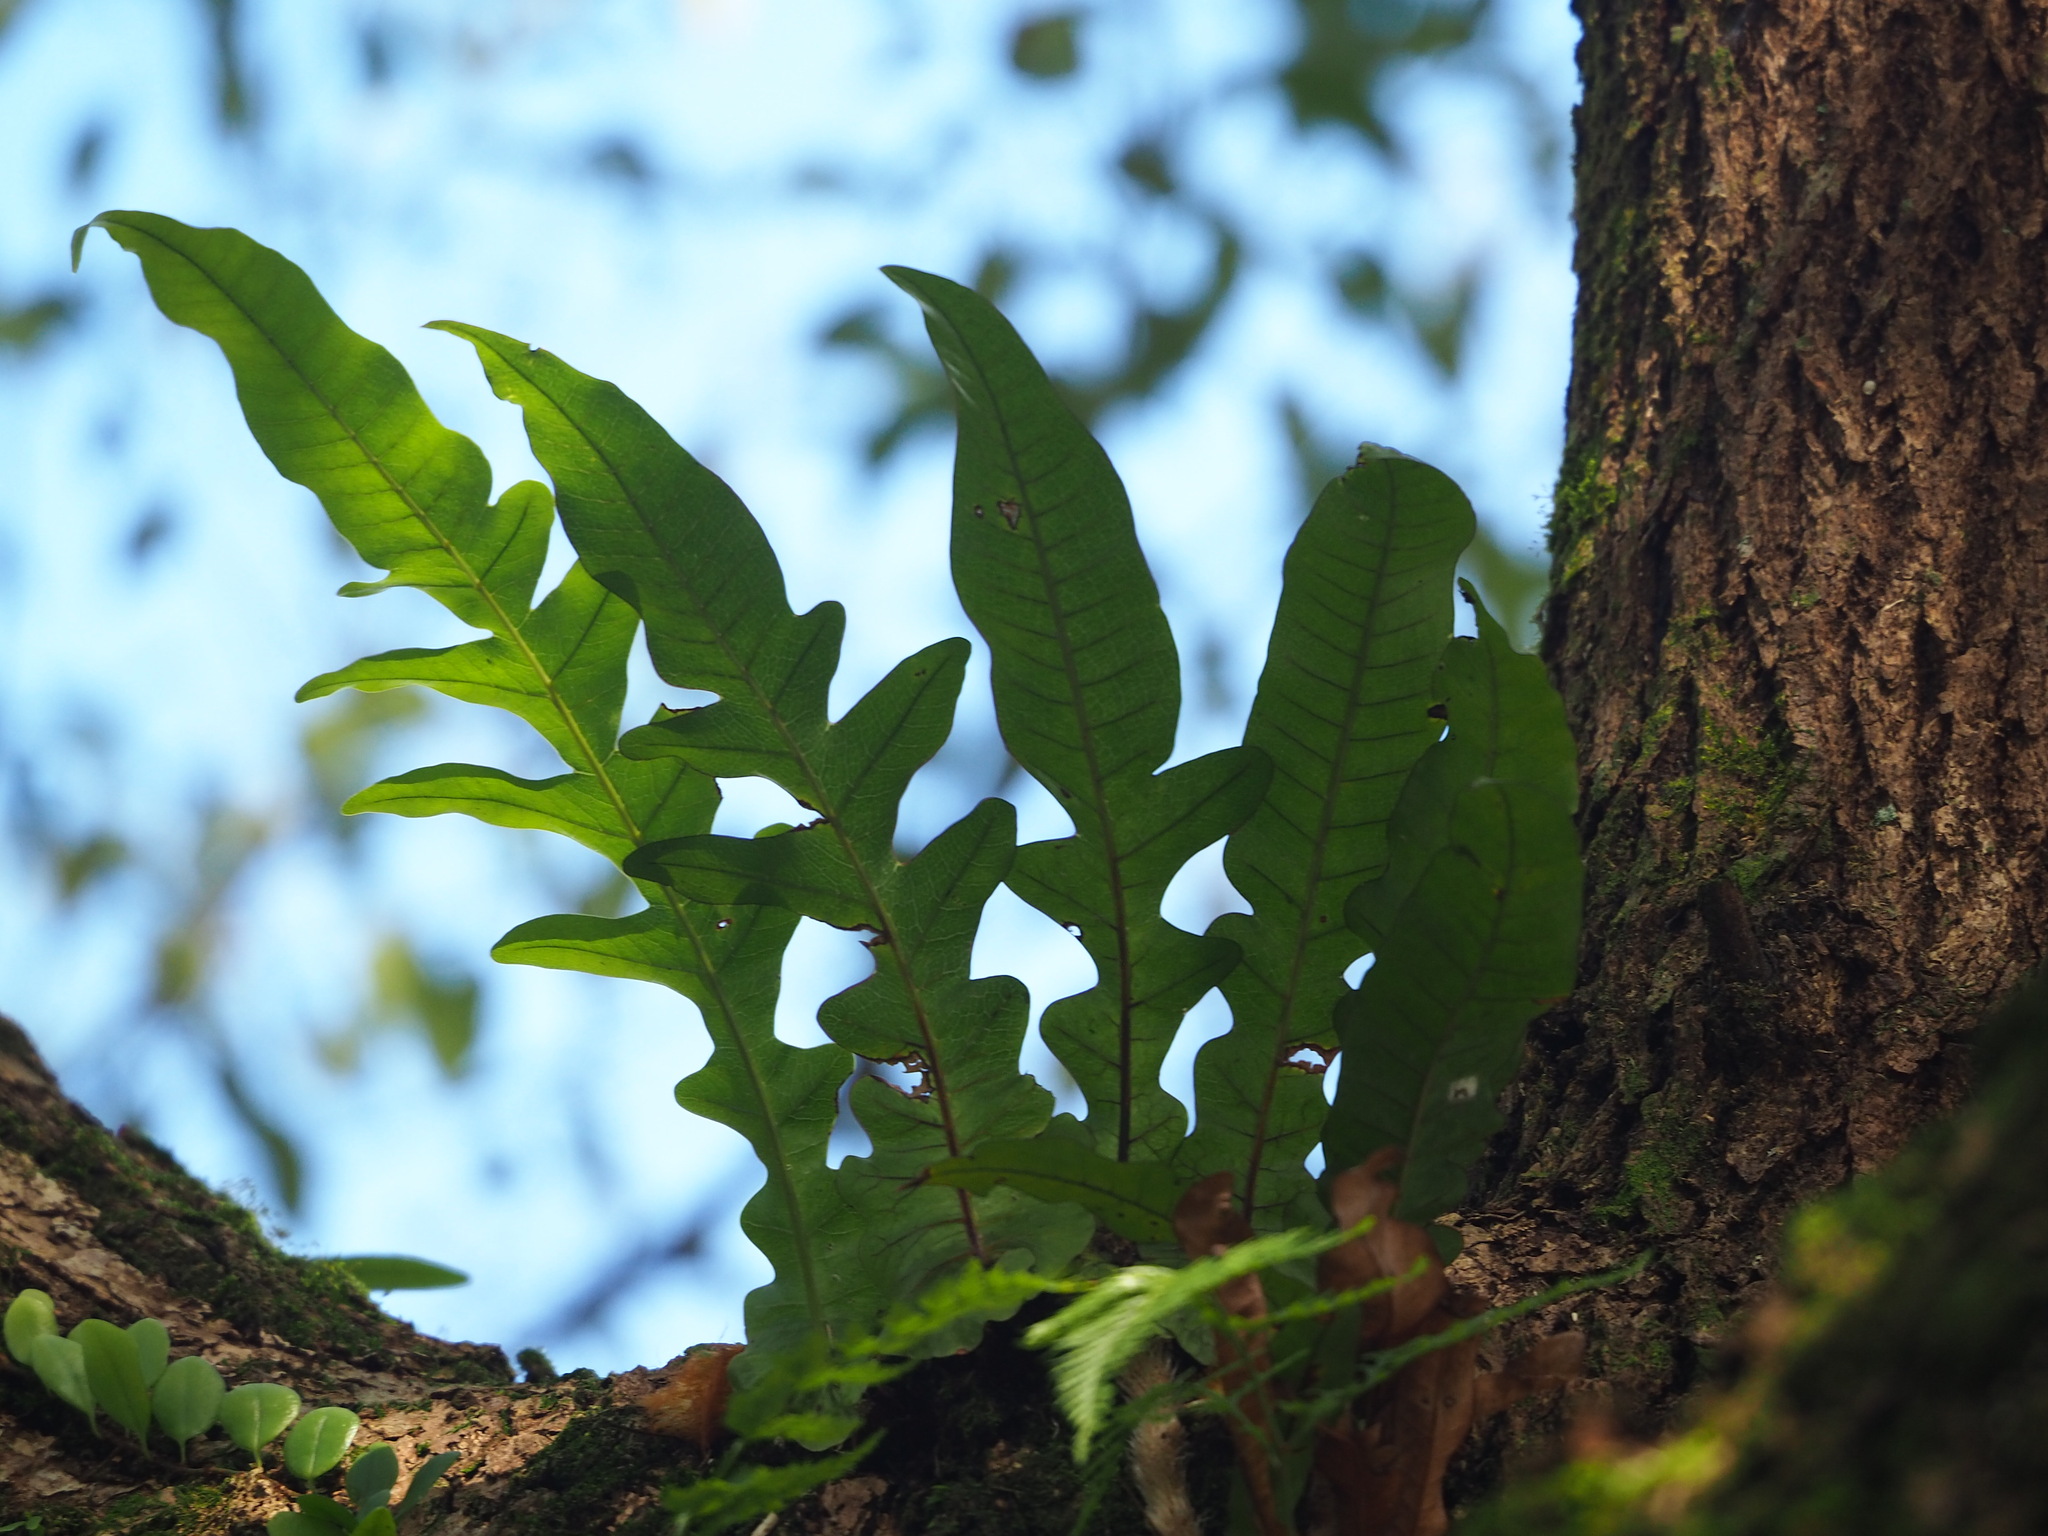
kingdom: Plantae
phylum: Tracheophyta
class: Polypodiopsida
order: Polypodiales
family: Polypodiaceae
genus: Drynaria
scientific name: Drynaria coronans
